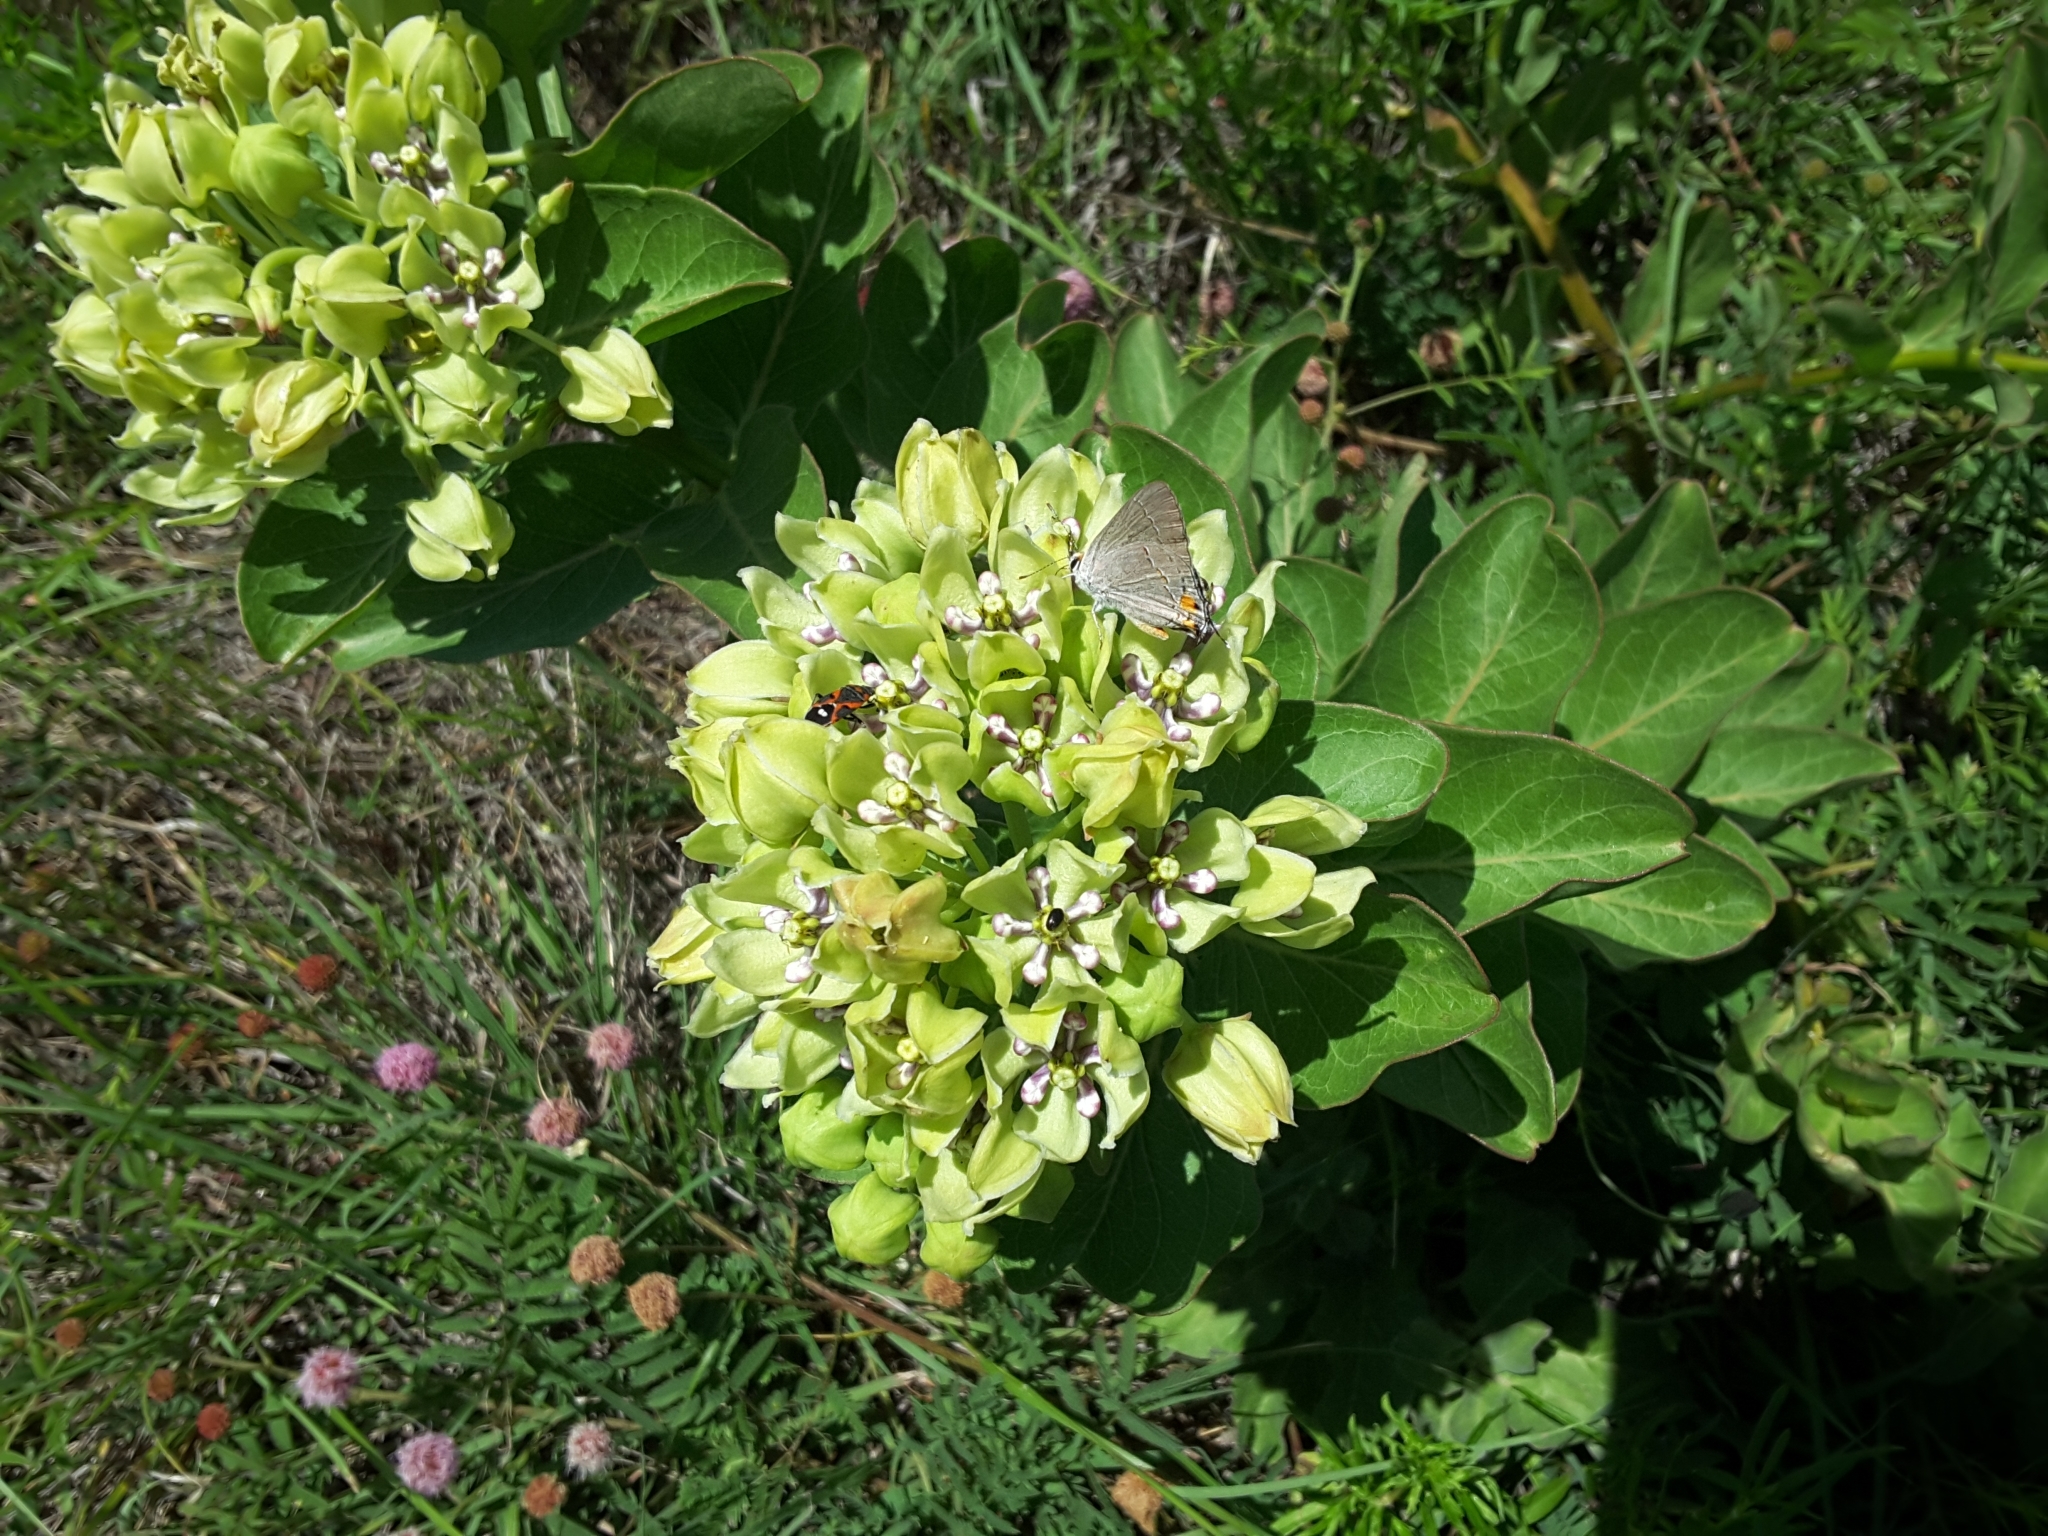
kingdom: Plantae
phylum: Tracheophyta
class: Magnoliopsida
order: Gentianales
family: Apocynaceae
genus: Asclepias
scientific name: Asclepias viridis
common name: Antelope-horns
